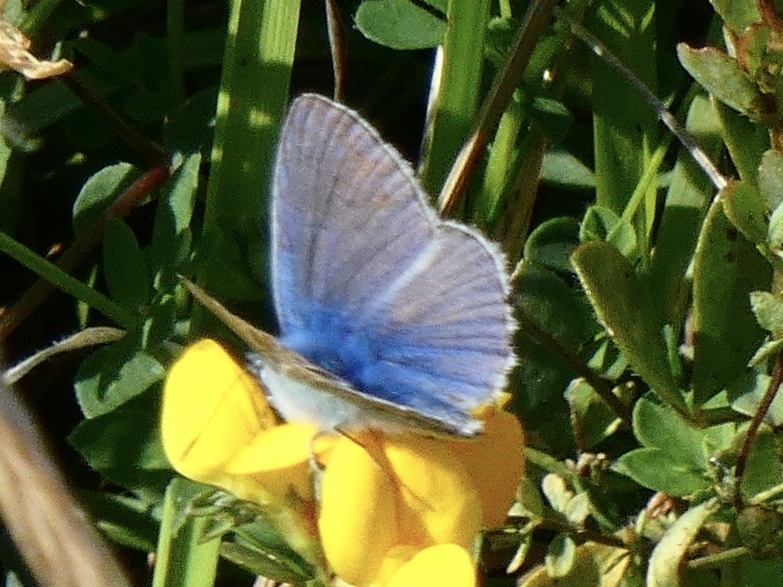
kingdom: Animalia
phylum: Arthropoda
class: Insecta
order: Lepidoptera
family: Lycaenidae
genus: Polyommatus
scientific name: Polyommatus icarus
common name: Common blue
